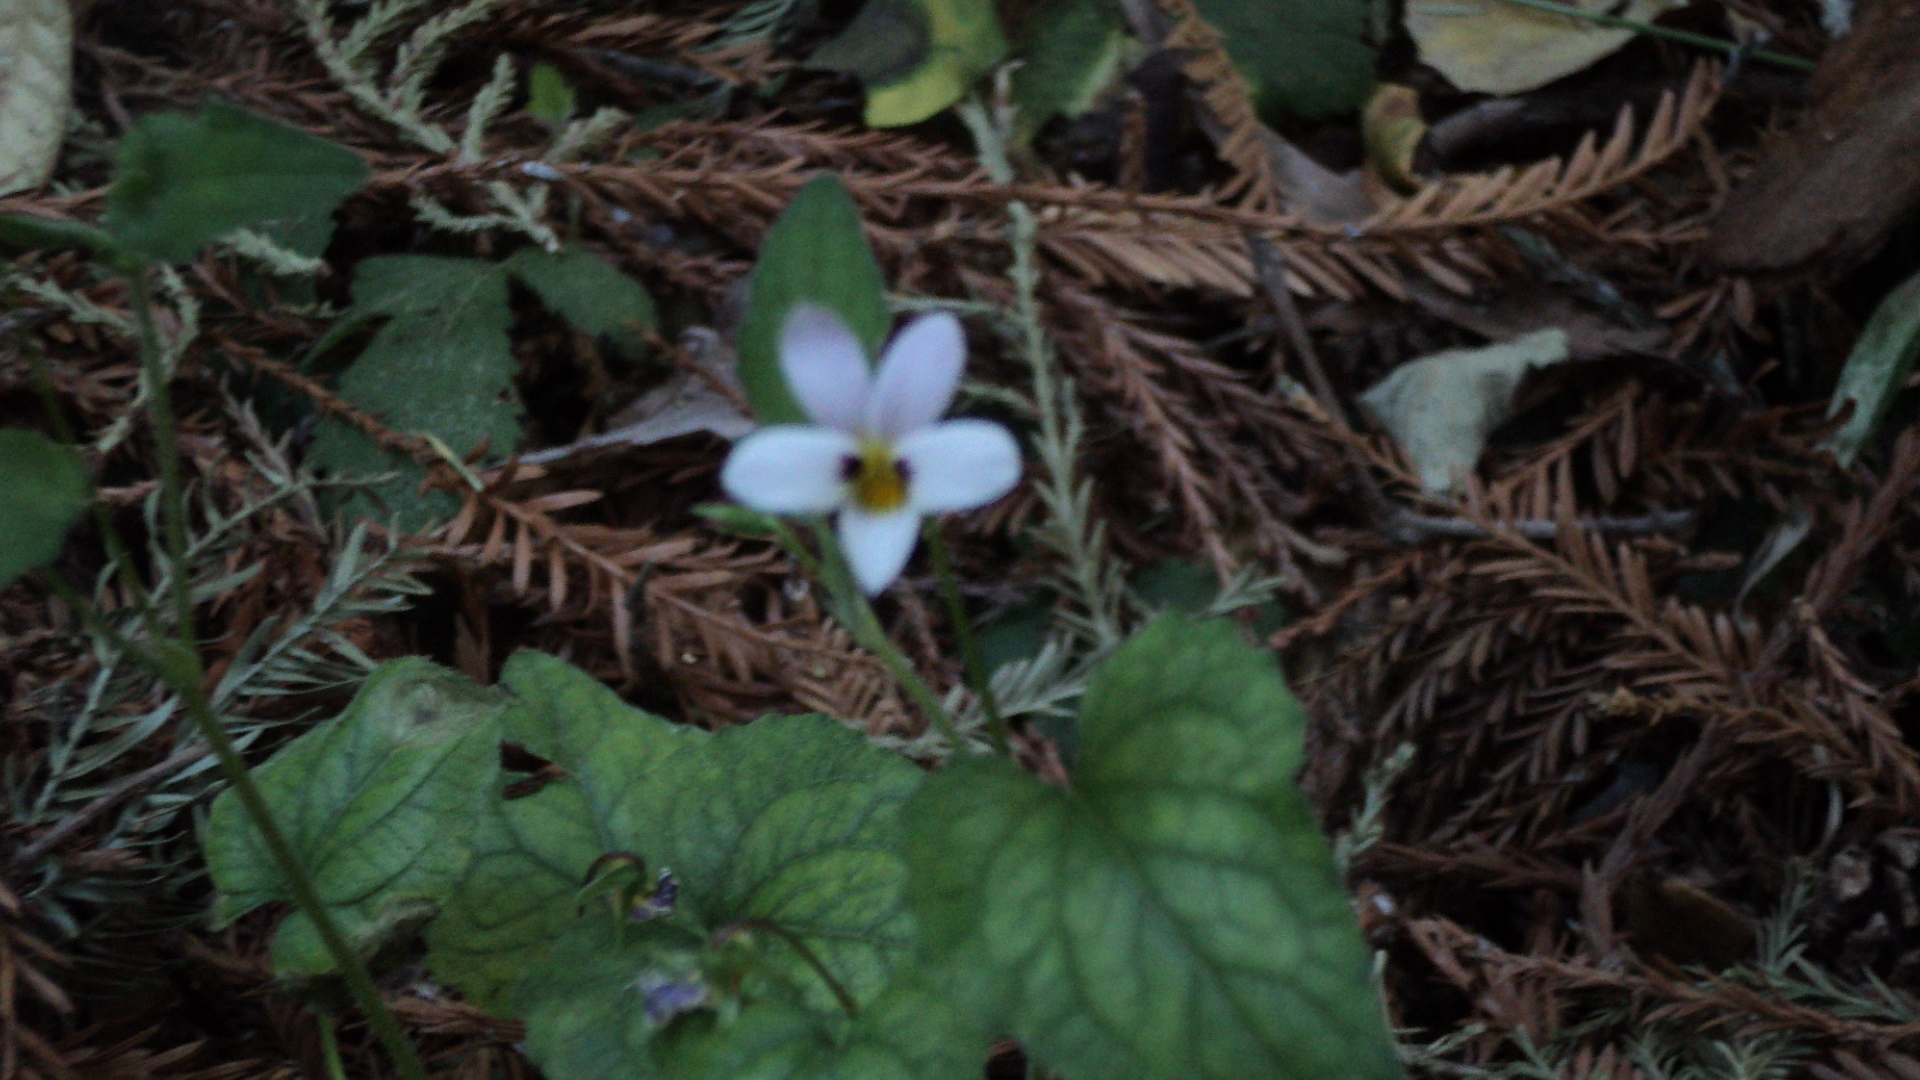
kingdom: Plantae
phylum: Tracheophyta
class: Magnoliopsida
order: Malpighiales
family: Violaceae
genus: Viola
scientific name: Viola ocellata
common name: Western heart's ease
